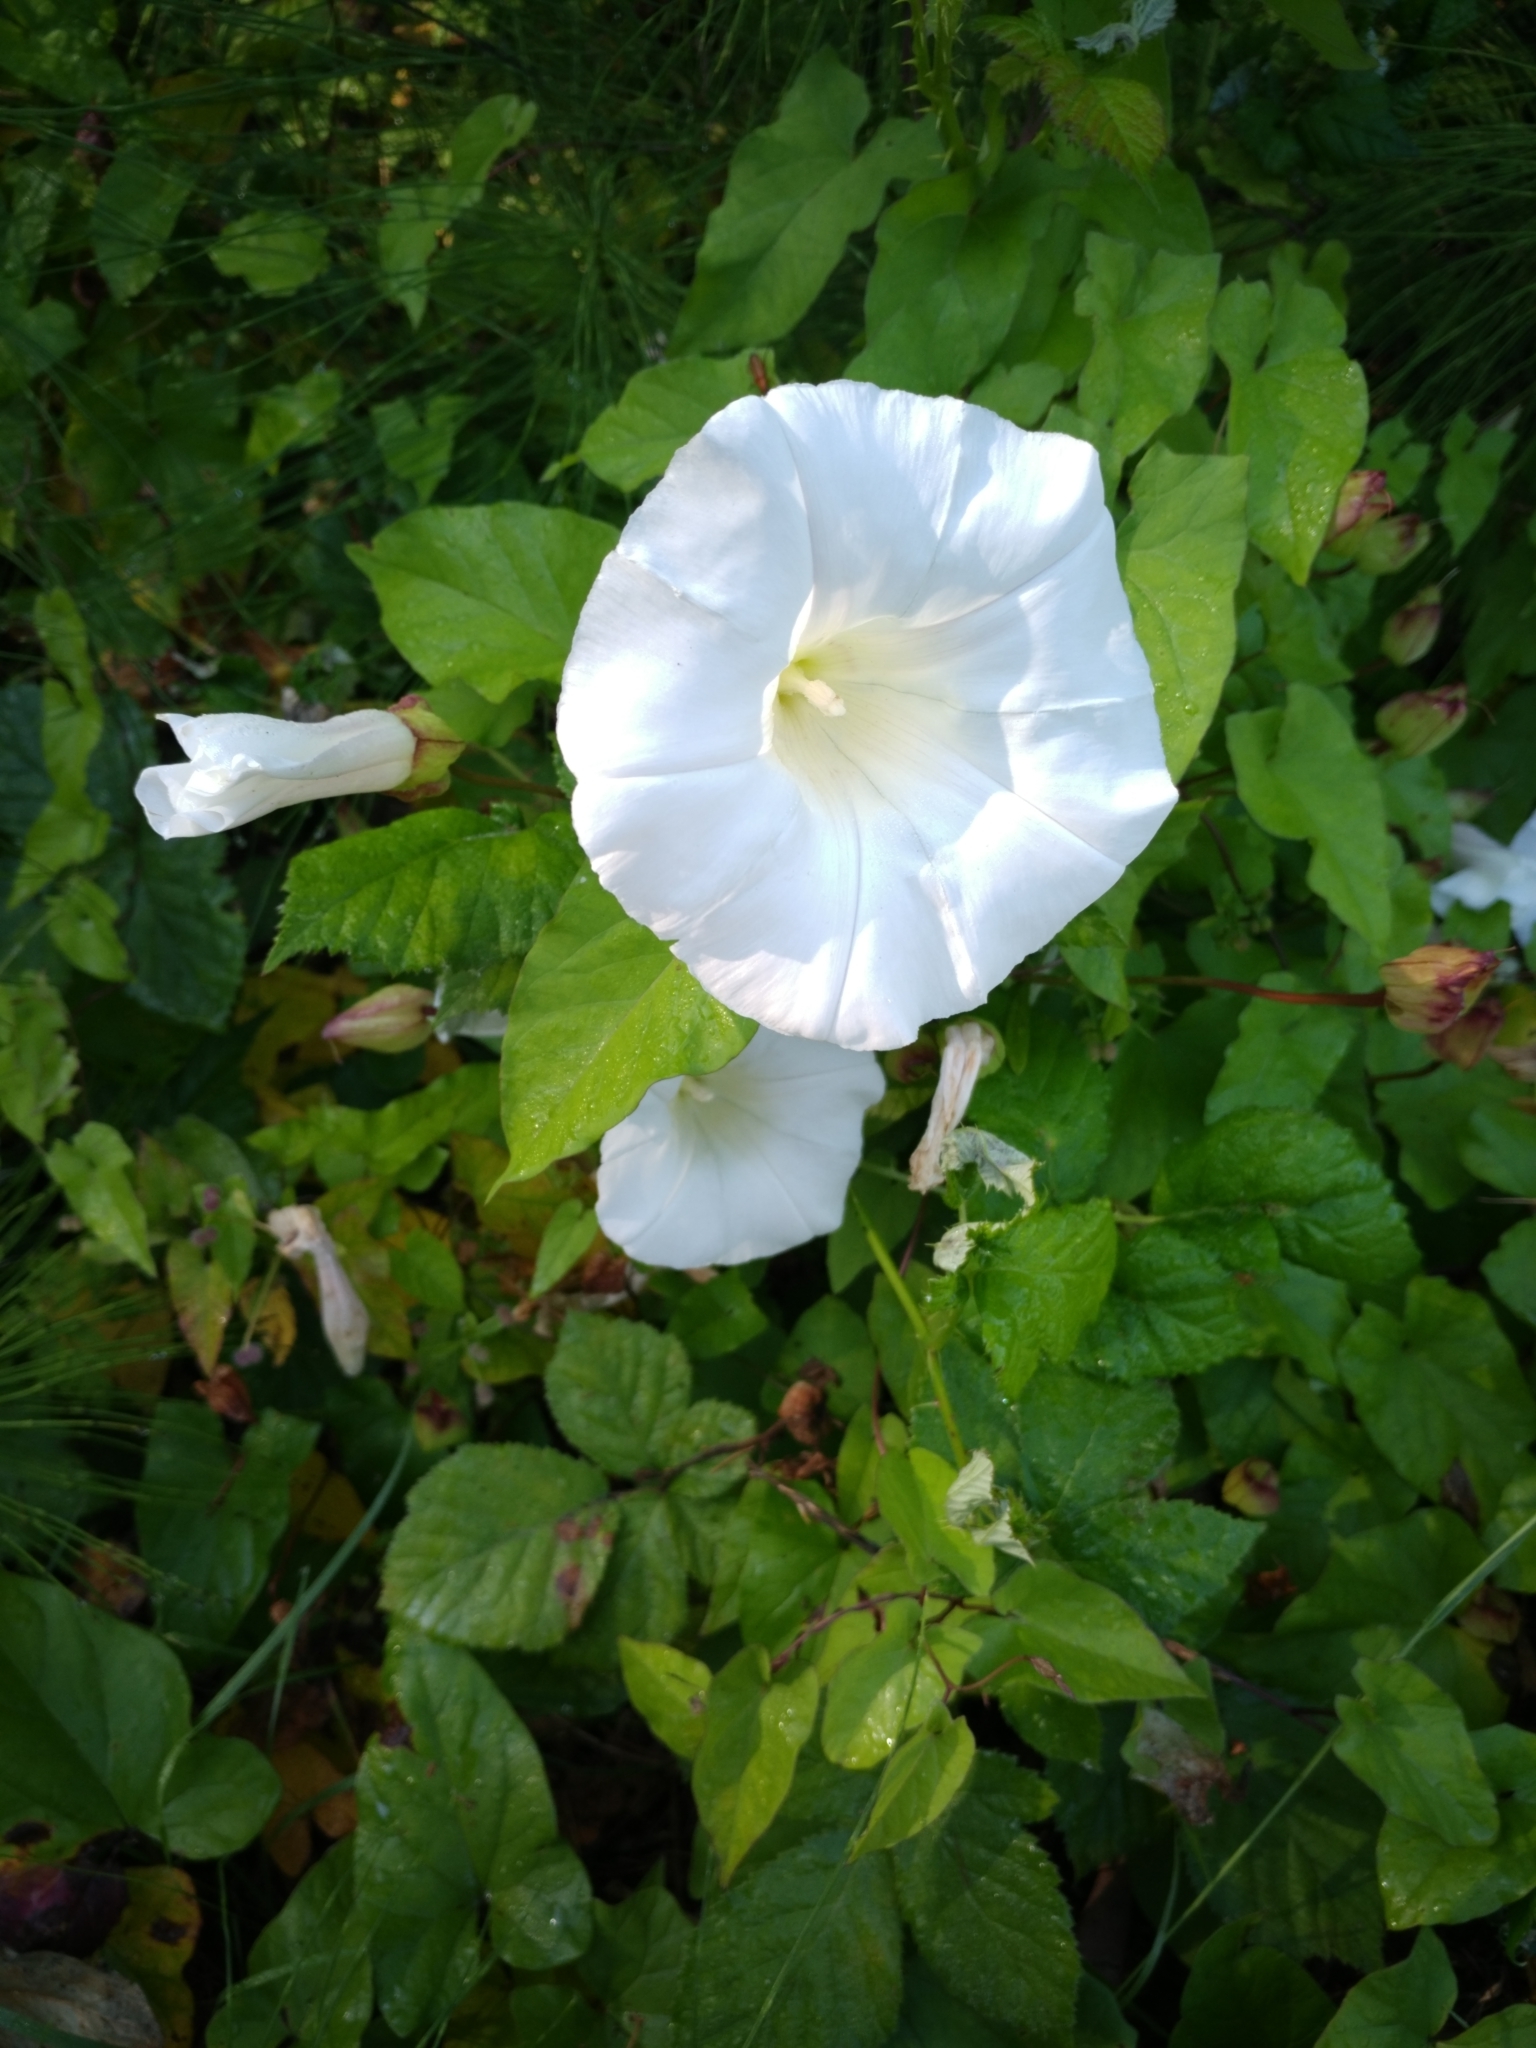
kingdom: Plantae
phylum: Tracheophyta
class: Magnoliopsida
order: Solanales
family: Convolvulaceae
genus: Calystegia
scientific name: Calystegia silvatica
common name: Large bindweed
